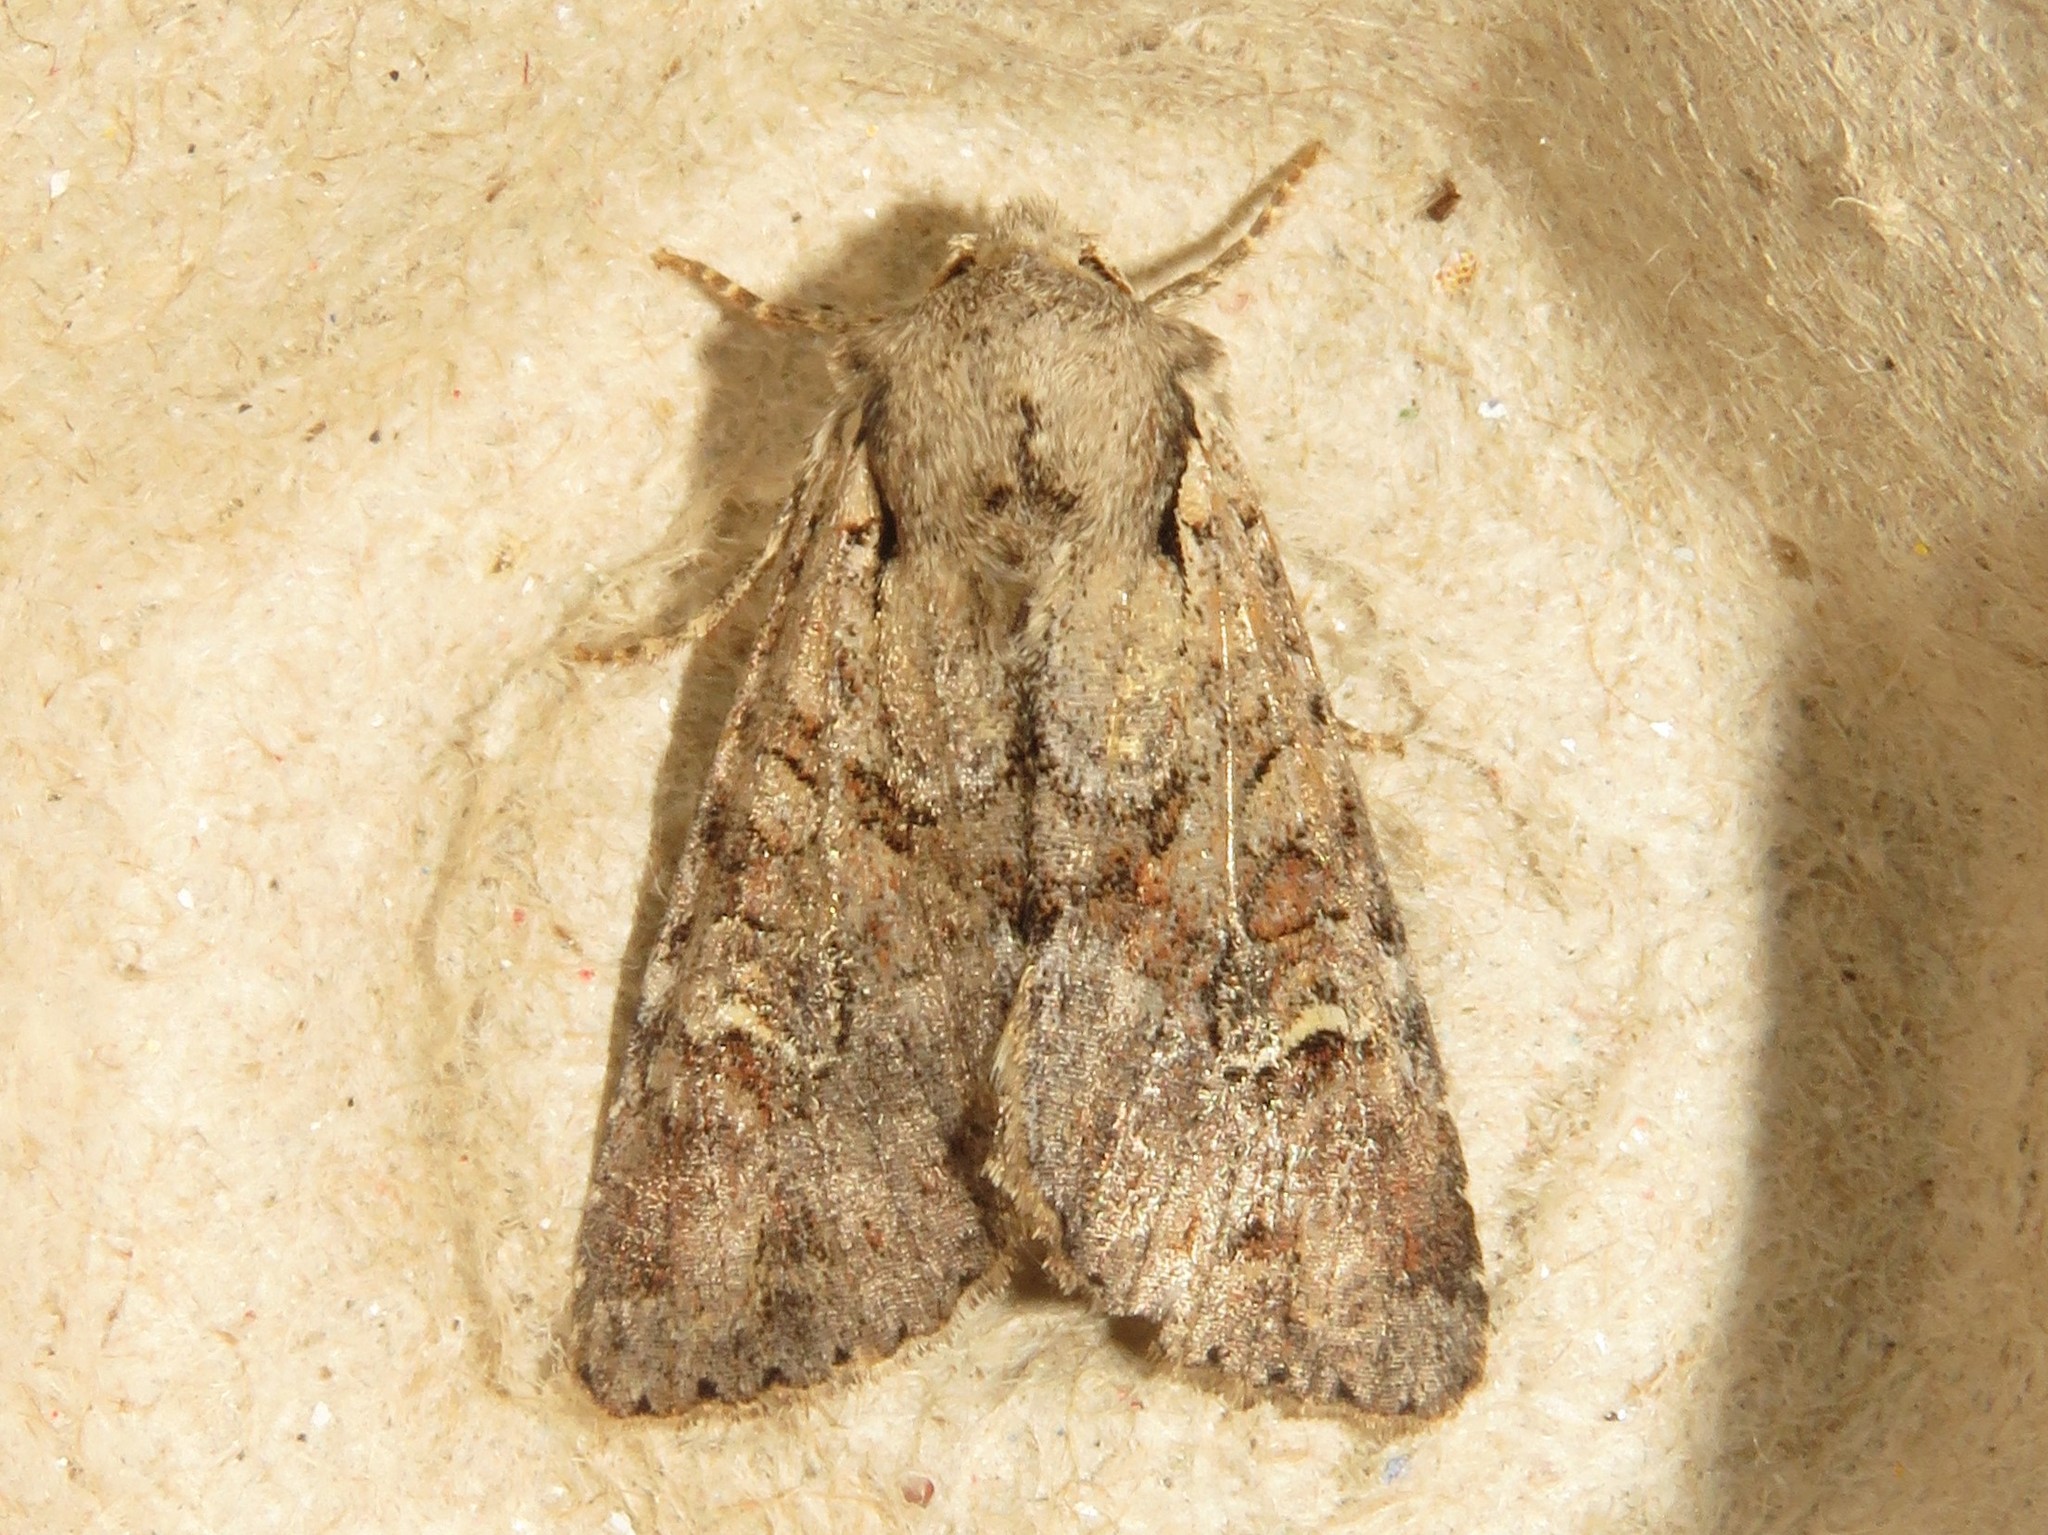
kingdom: Animalia
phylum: Arthropoda
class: Insecta
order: Lepidoptera
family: Noctuidae
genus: Apamea
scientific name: Apamea sordens
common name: Rustic shoulder-knot
